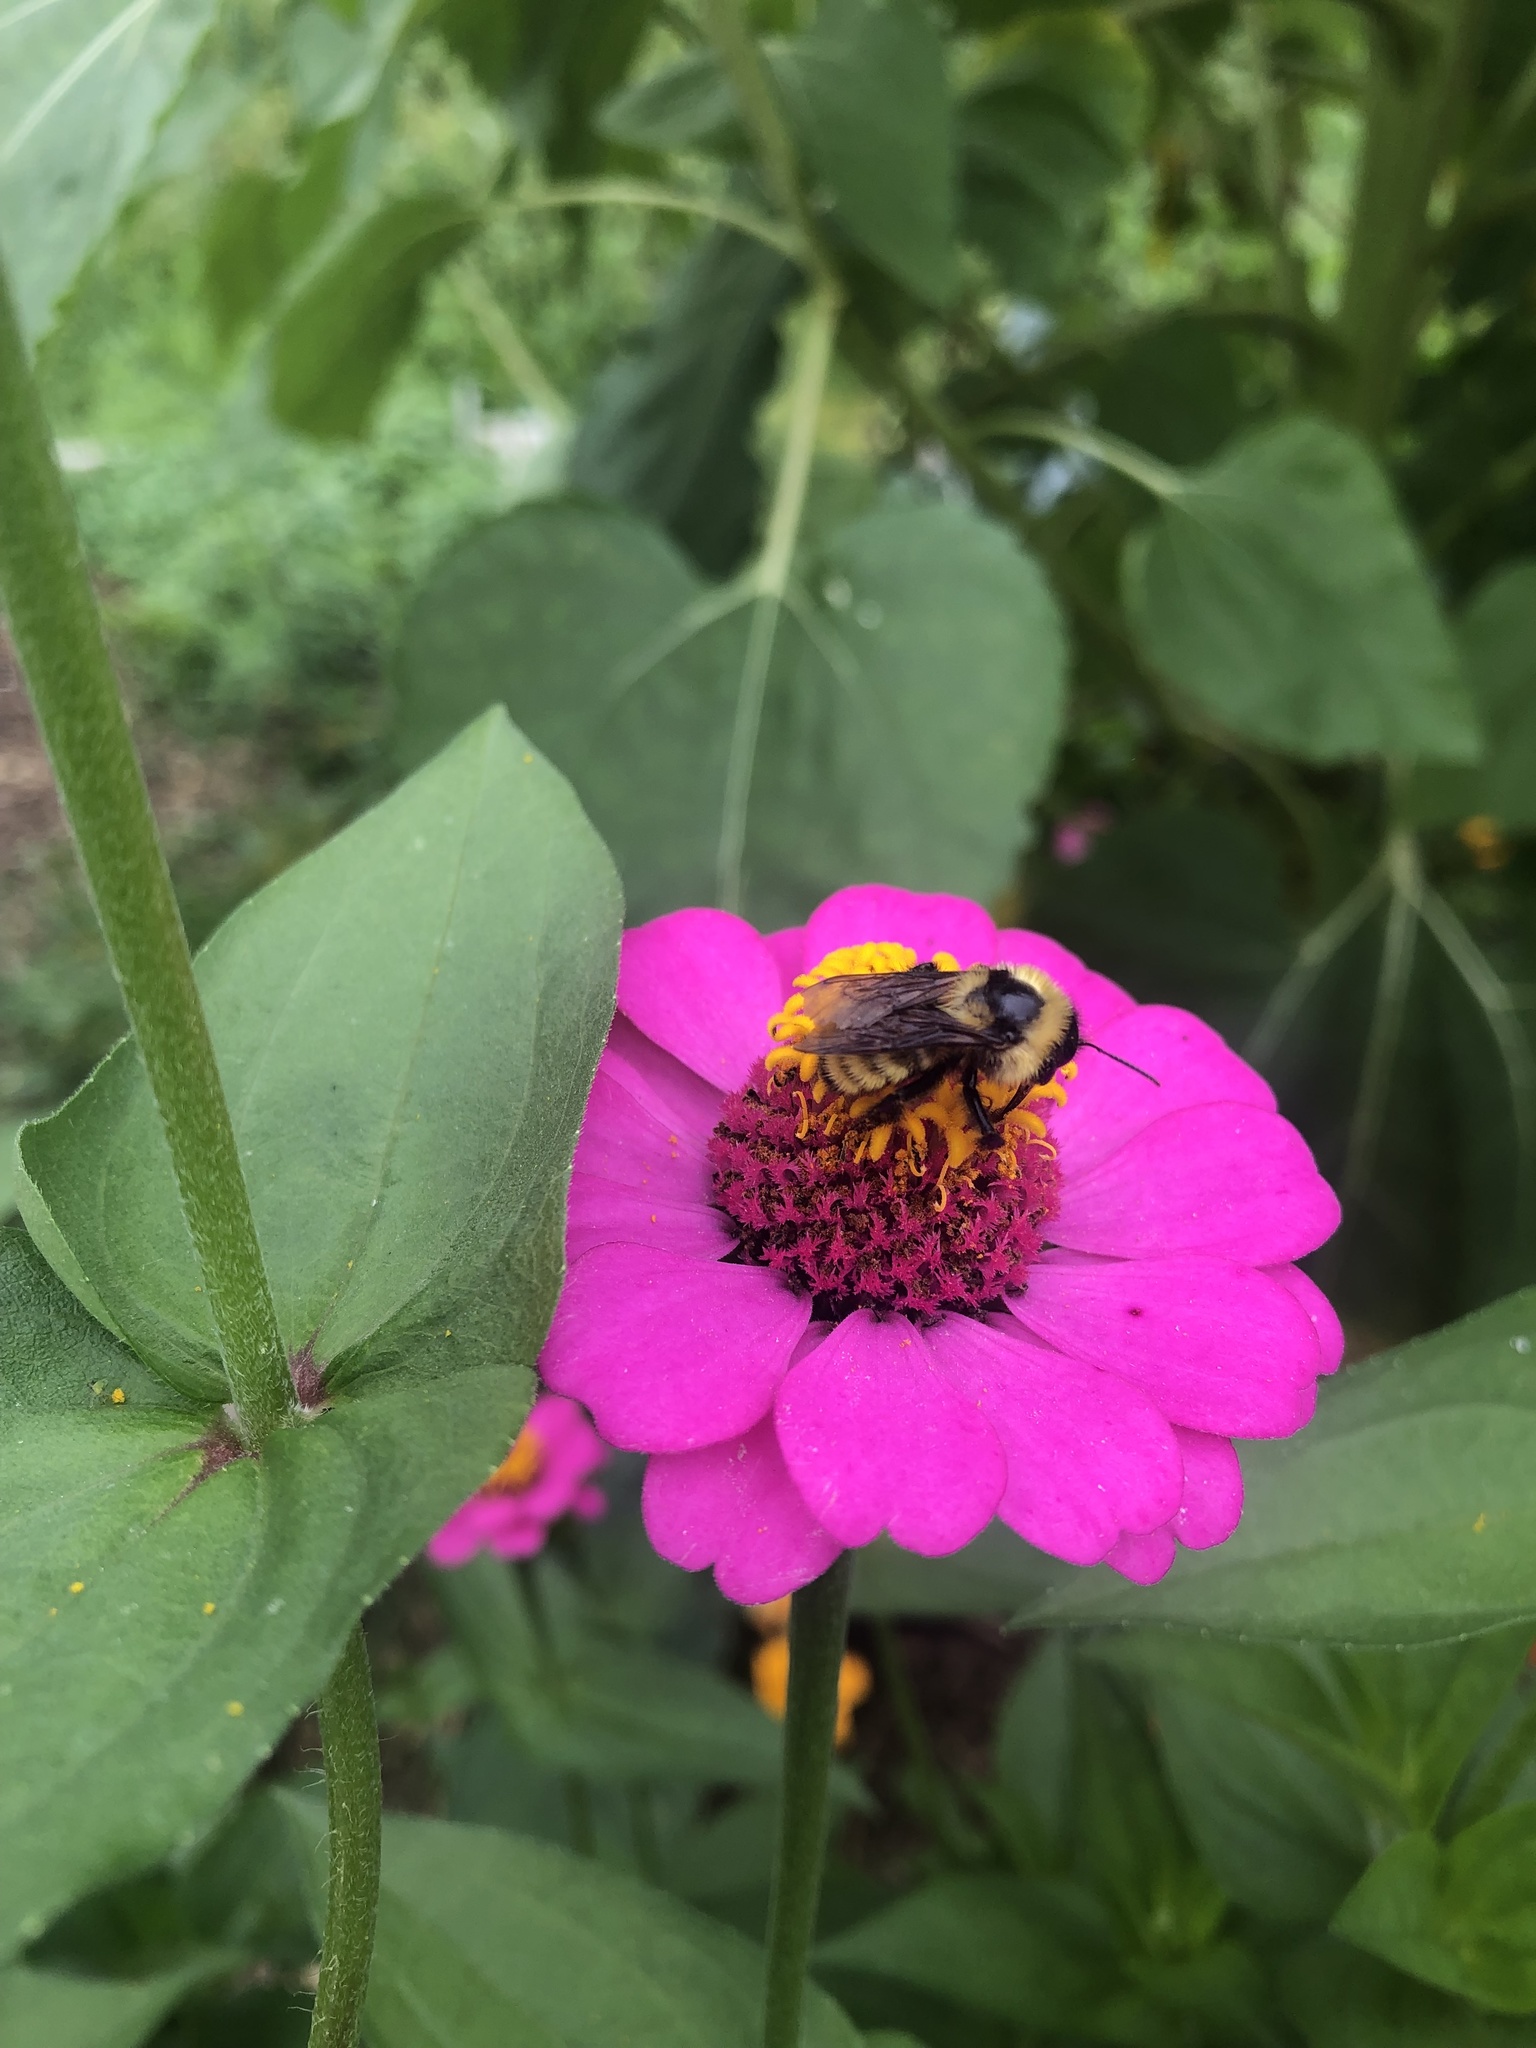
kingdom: Animalia
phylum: Arthropoda
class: Insecta
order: Hymenoptera
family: Apidae
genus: Bombus
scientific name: Bombus fervidus
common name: Yellow bumble bee
